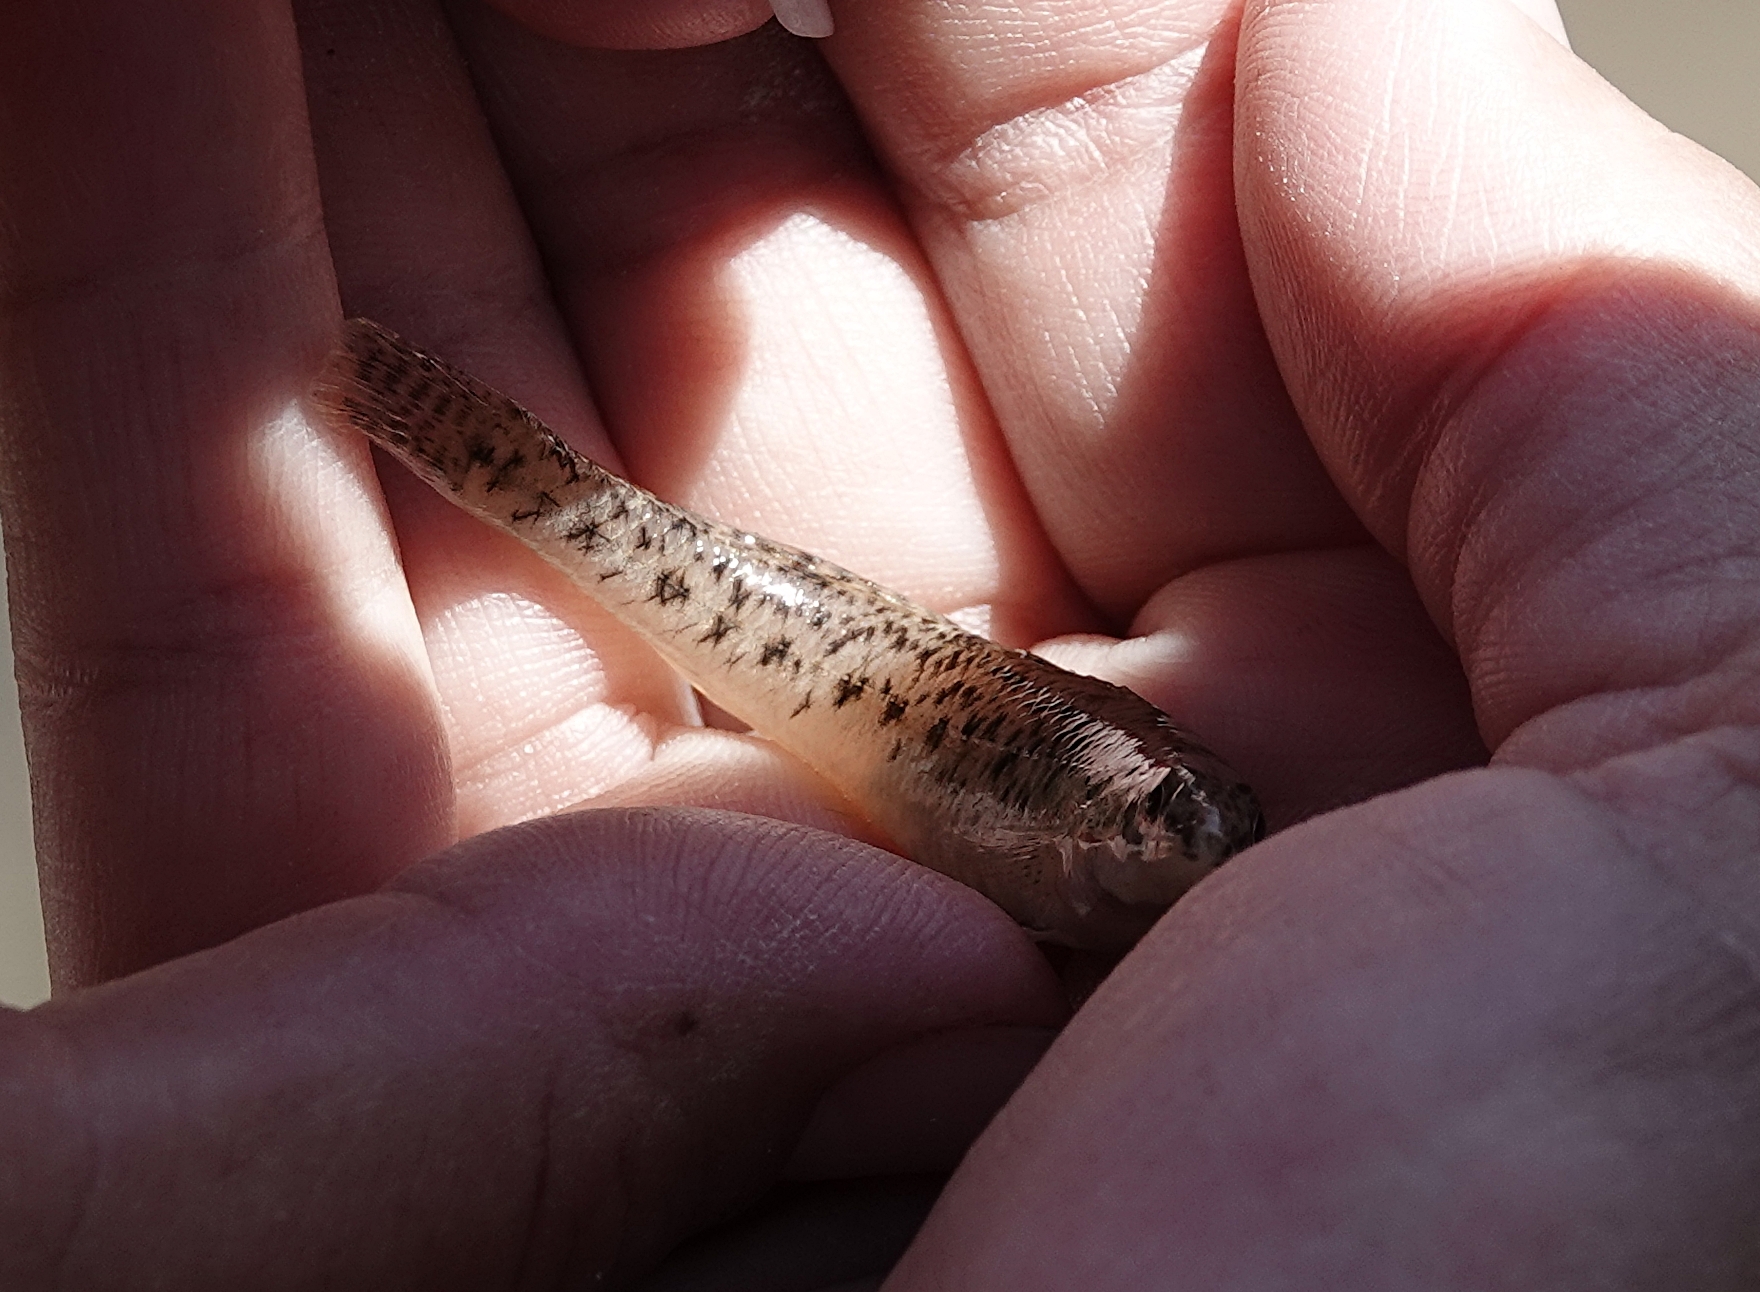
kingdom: Animalia
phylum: Chordata
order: Perciformes
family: Percidae
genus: Etheostoma
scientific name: Etheostoma nigrum
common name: Johnny darter
